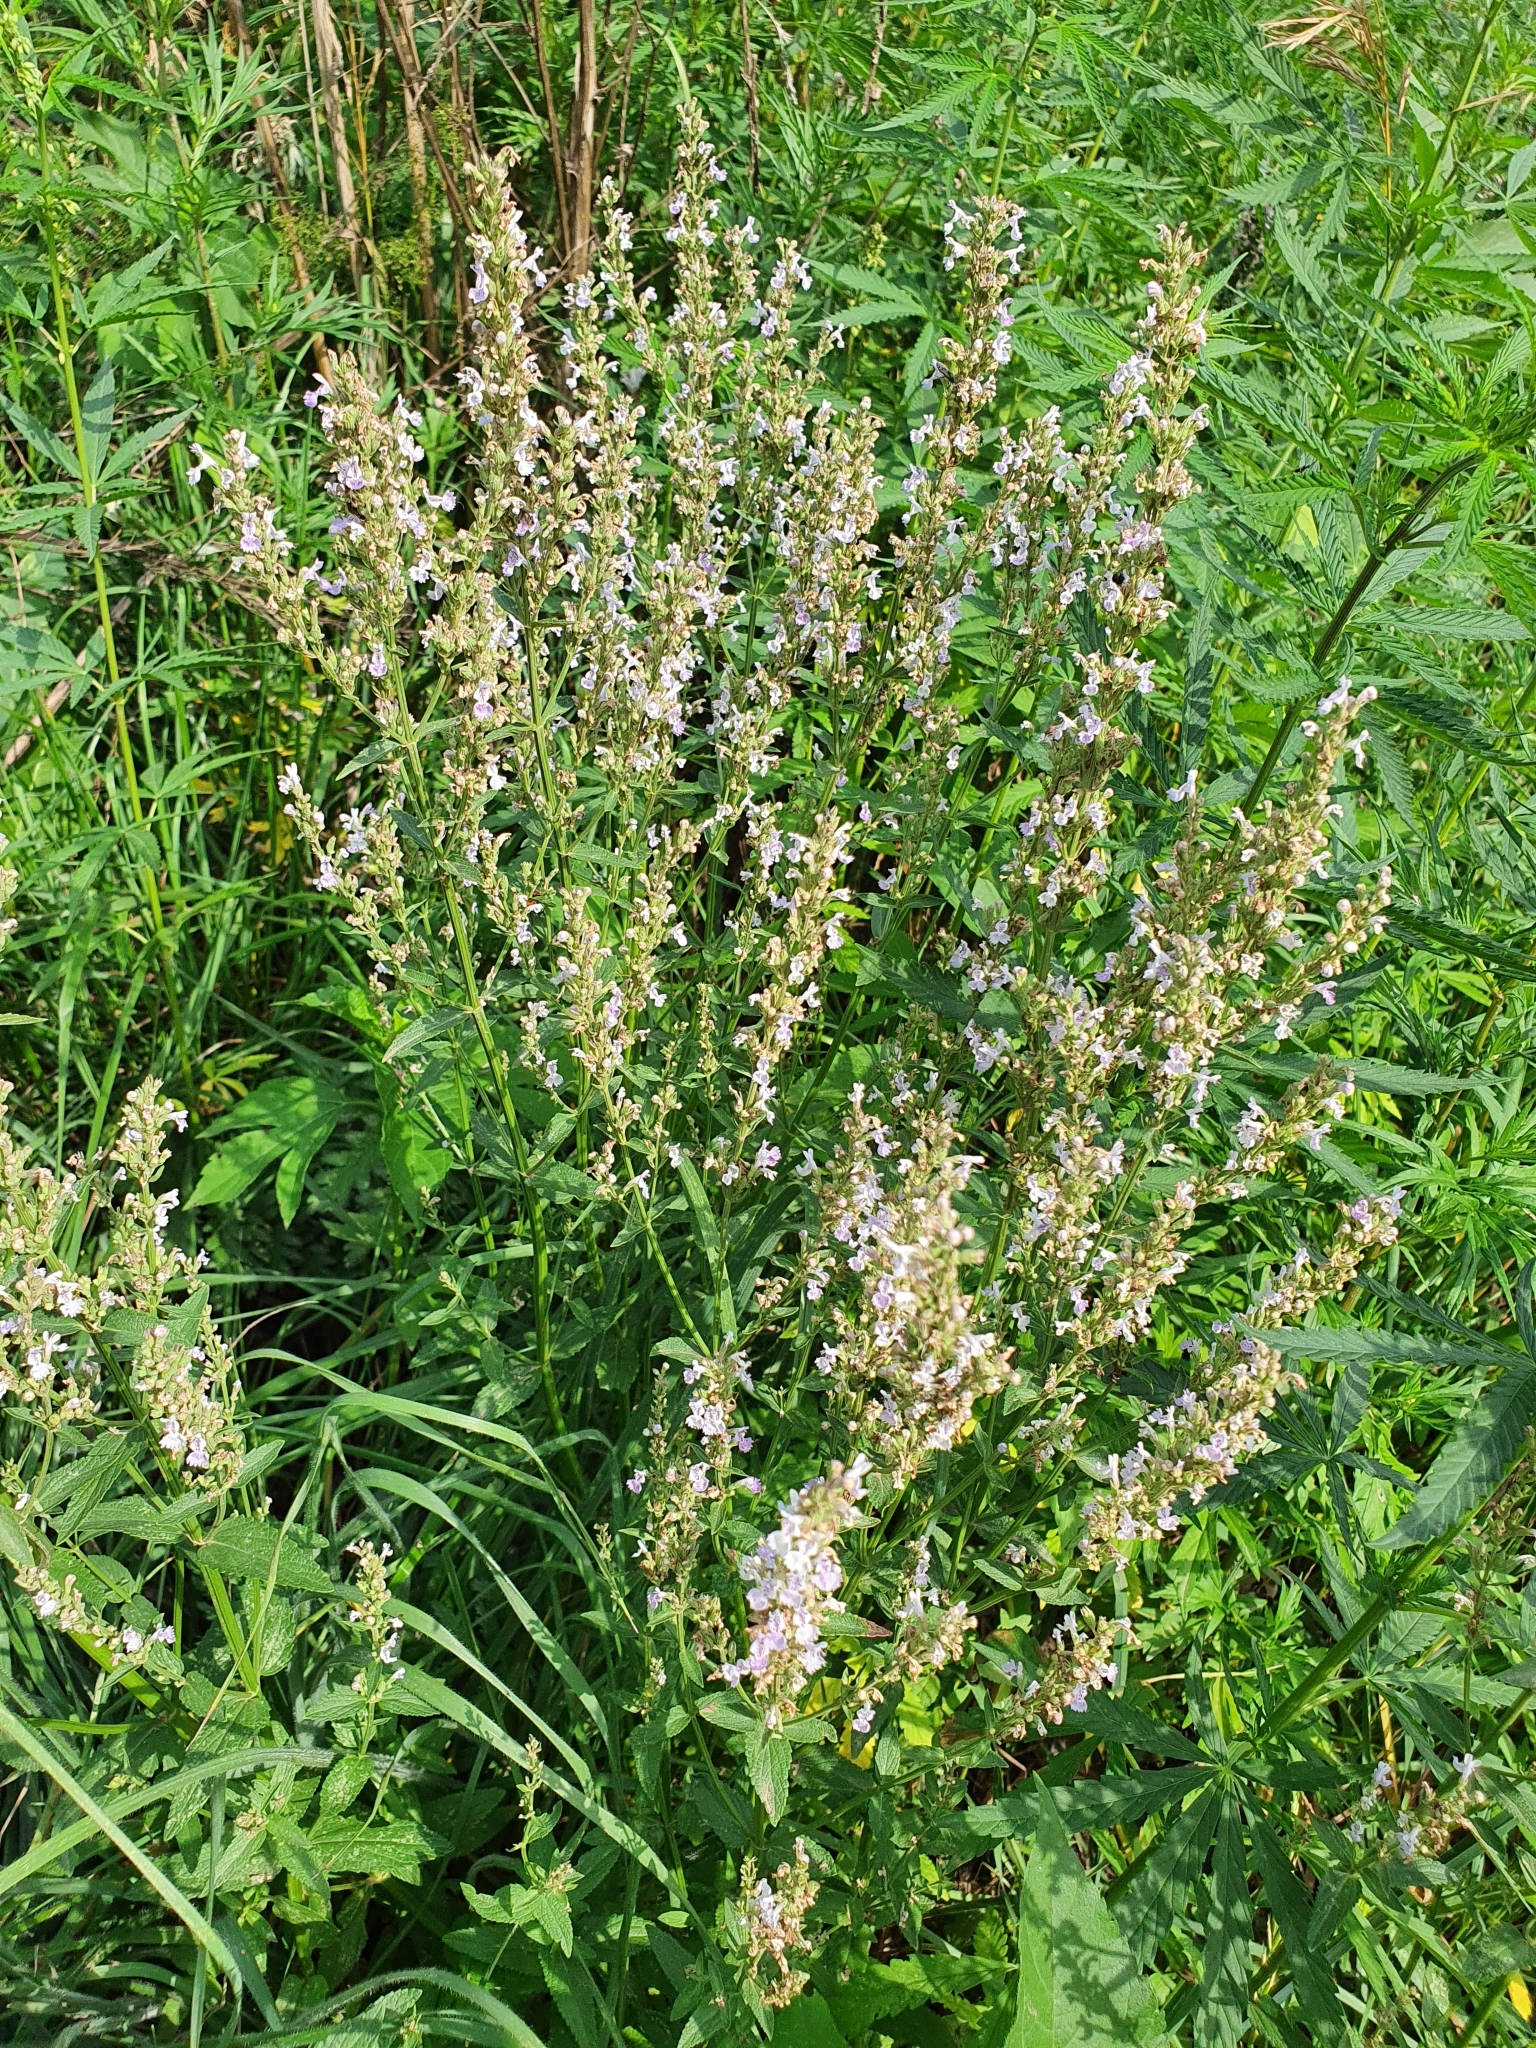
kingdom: Plantae
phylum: Tracheophyta
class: Magnoliopsida
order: Lamiales
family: Lamiaceae
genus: Nepeta
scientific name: Nepeta nuda
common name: Hairless catmint
